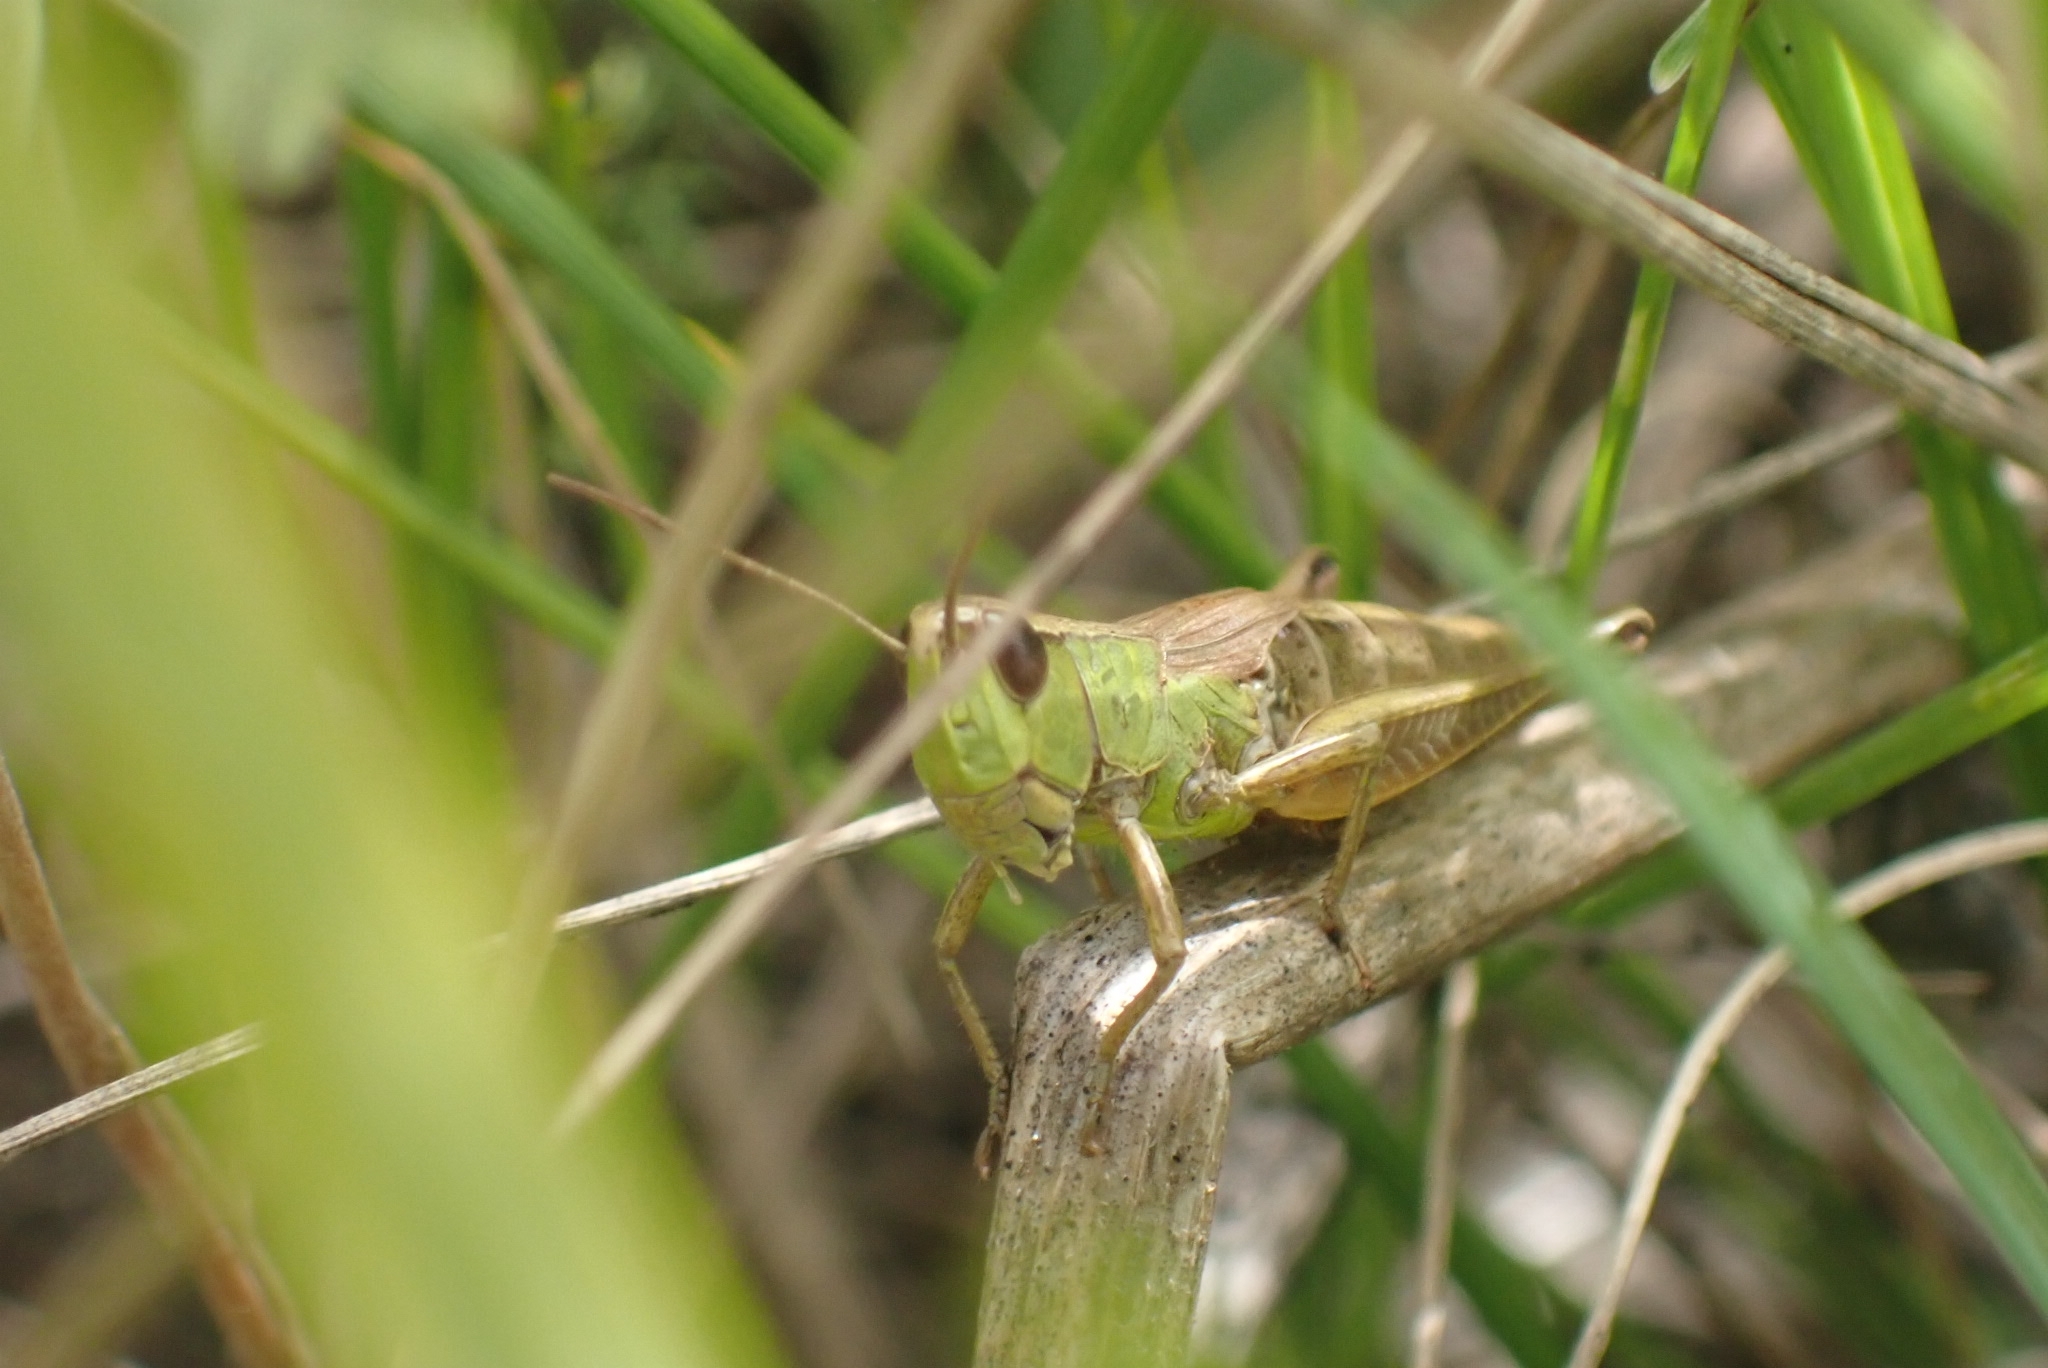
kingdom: Animalia
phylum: Arthropoda
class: Insecta
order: Orthoptera
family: Acrididae
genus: Pseudochorthippus
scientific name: Pseudochorthippus parallelus
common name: Meadow grasshopper
